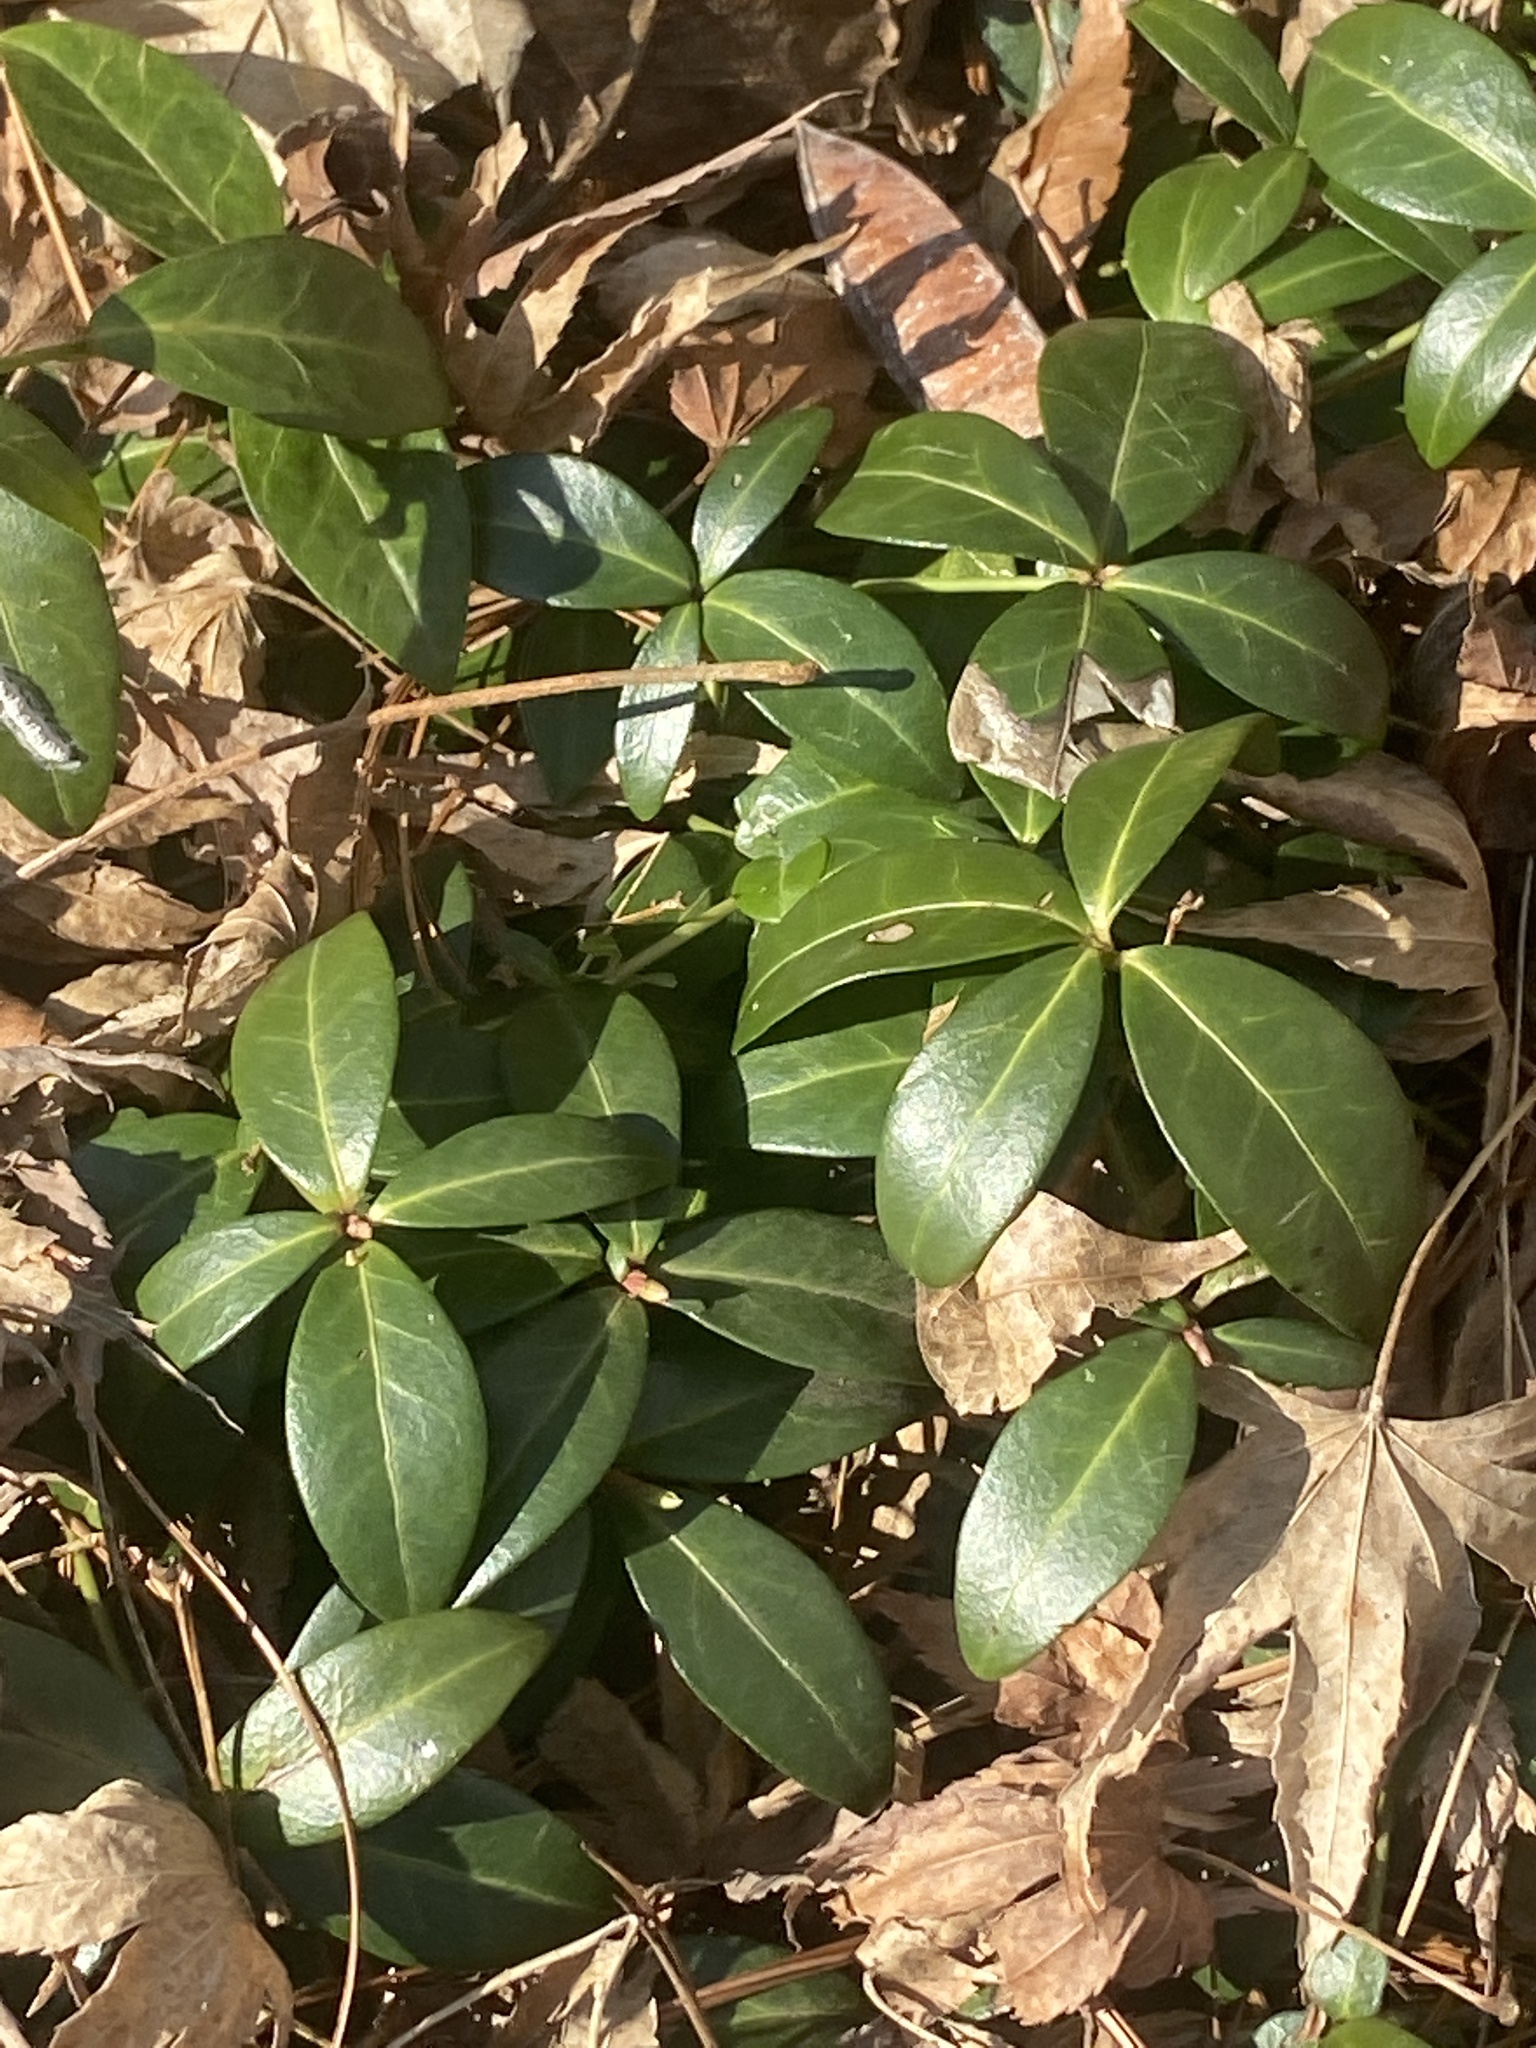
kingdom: Plantae
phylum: Tracheophyta
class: Magnoliopsida
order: Gentianales
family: Apocynaceae
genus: Vinca
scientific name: Vinca minor
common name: Lesser periwinkle
